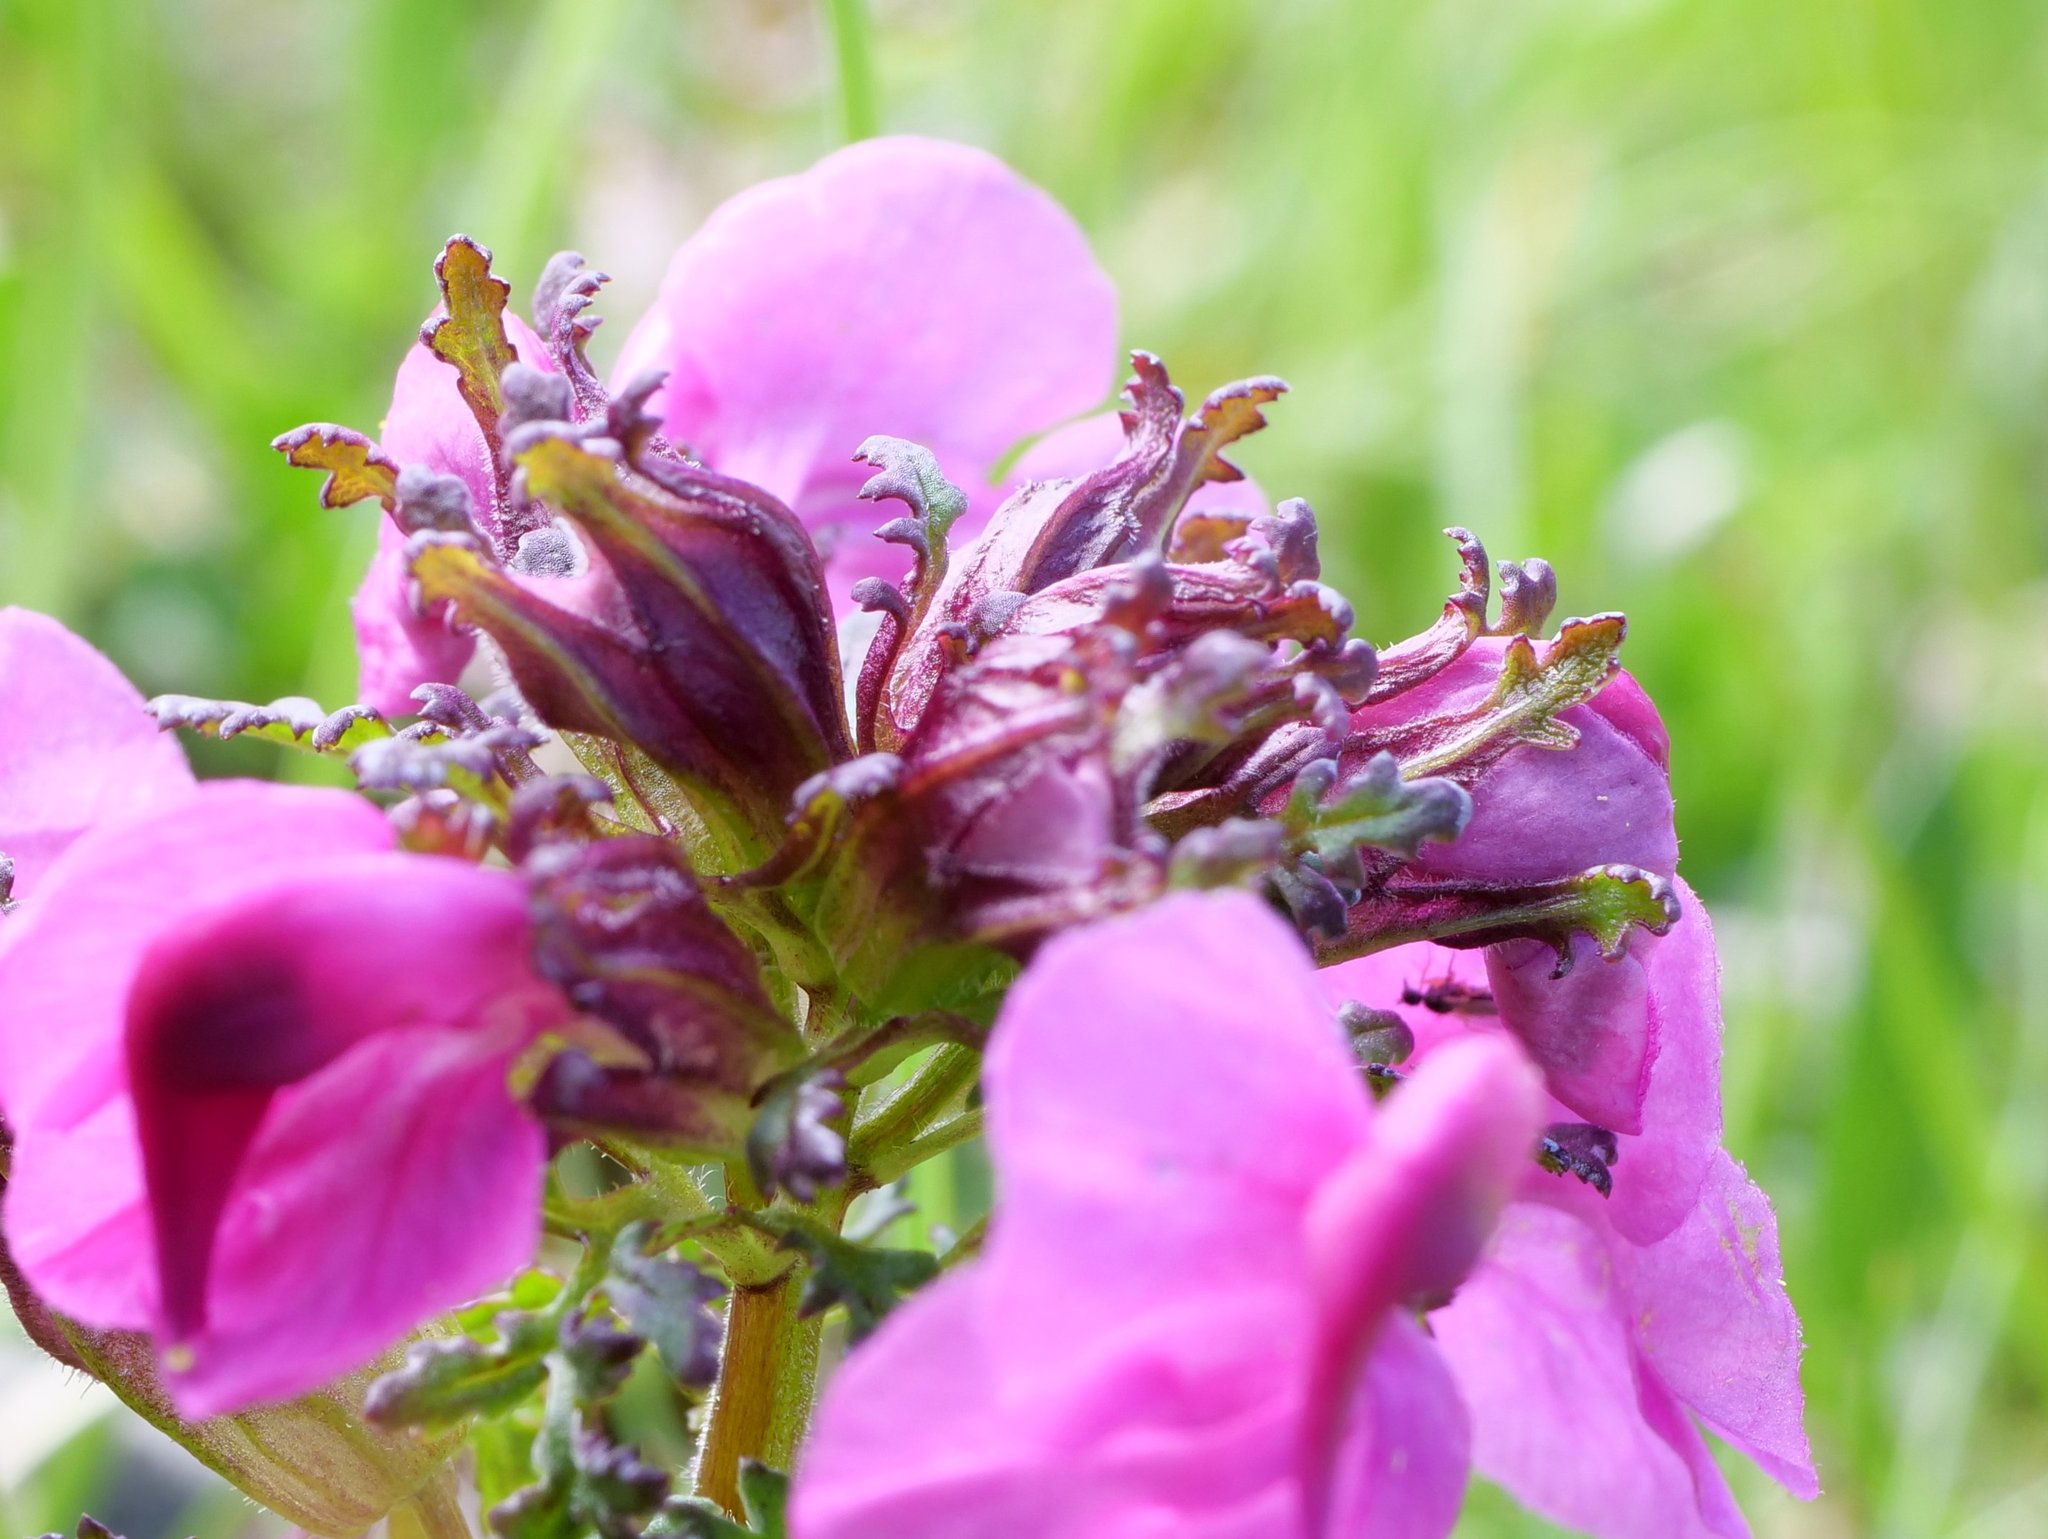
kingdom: Plantae
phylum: Tracheophyta
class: Magnoliopsida
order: Lamiales
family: Orobanchaceae
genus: Pedicularis
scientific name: Pedicularis rostratocapitata
